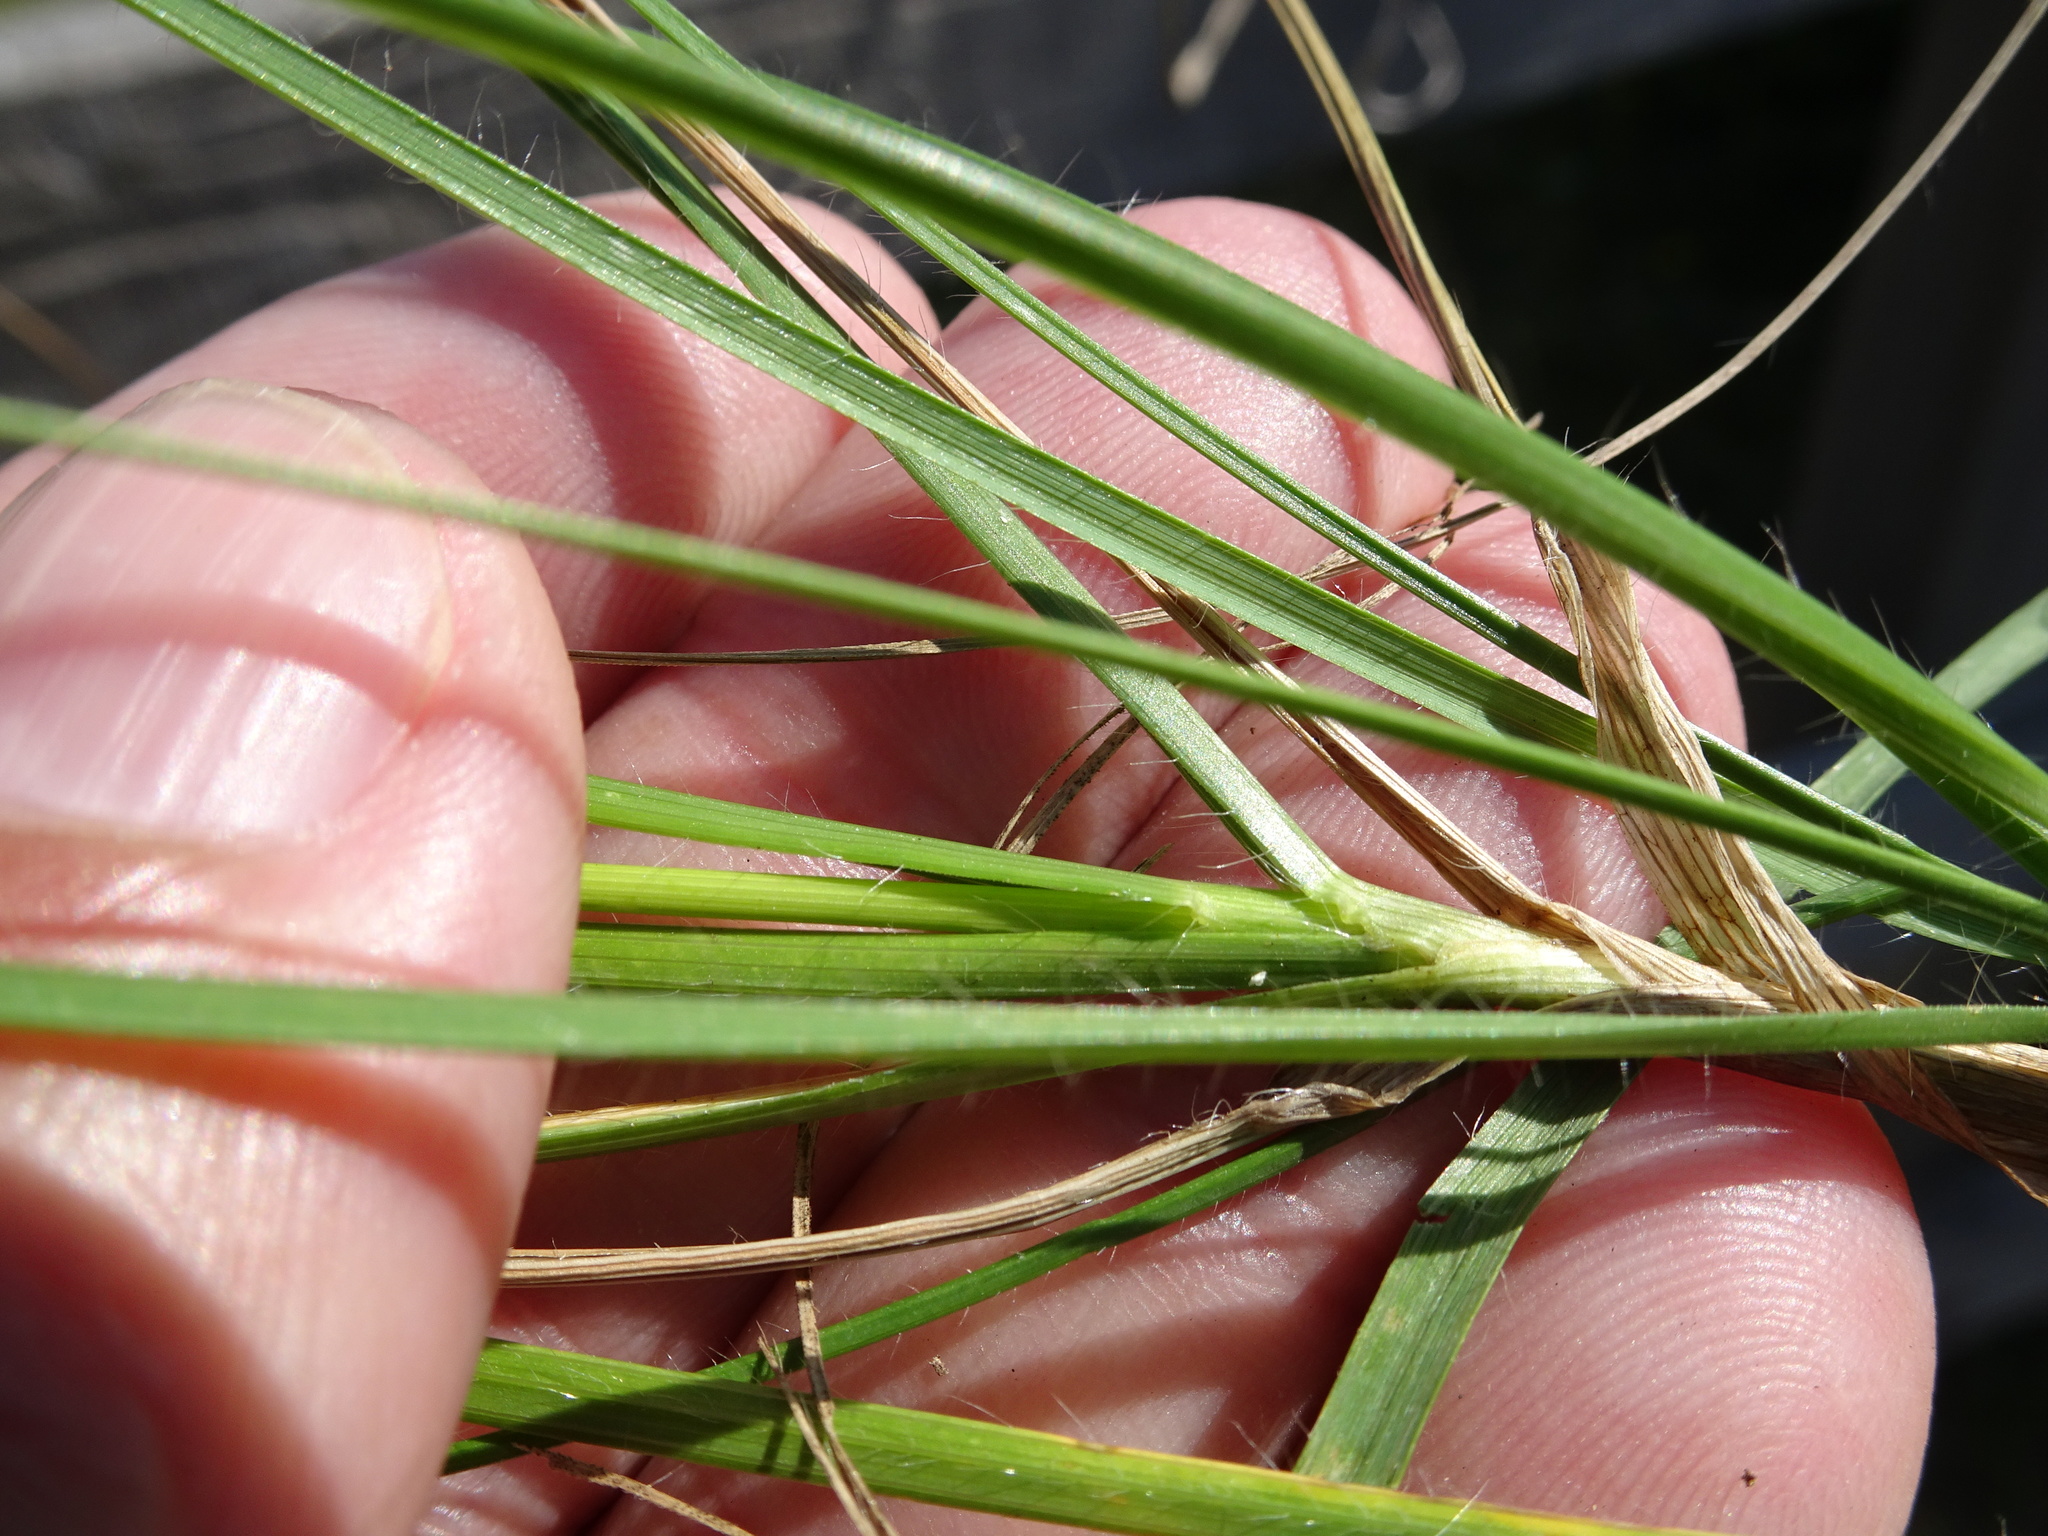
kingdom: Plantae
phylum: Tracheophyta
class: Liliopsida
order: Poales
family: Poaceae
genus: Bromus
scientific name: Bromus erectus
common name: Erect brome
